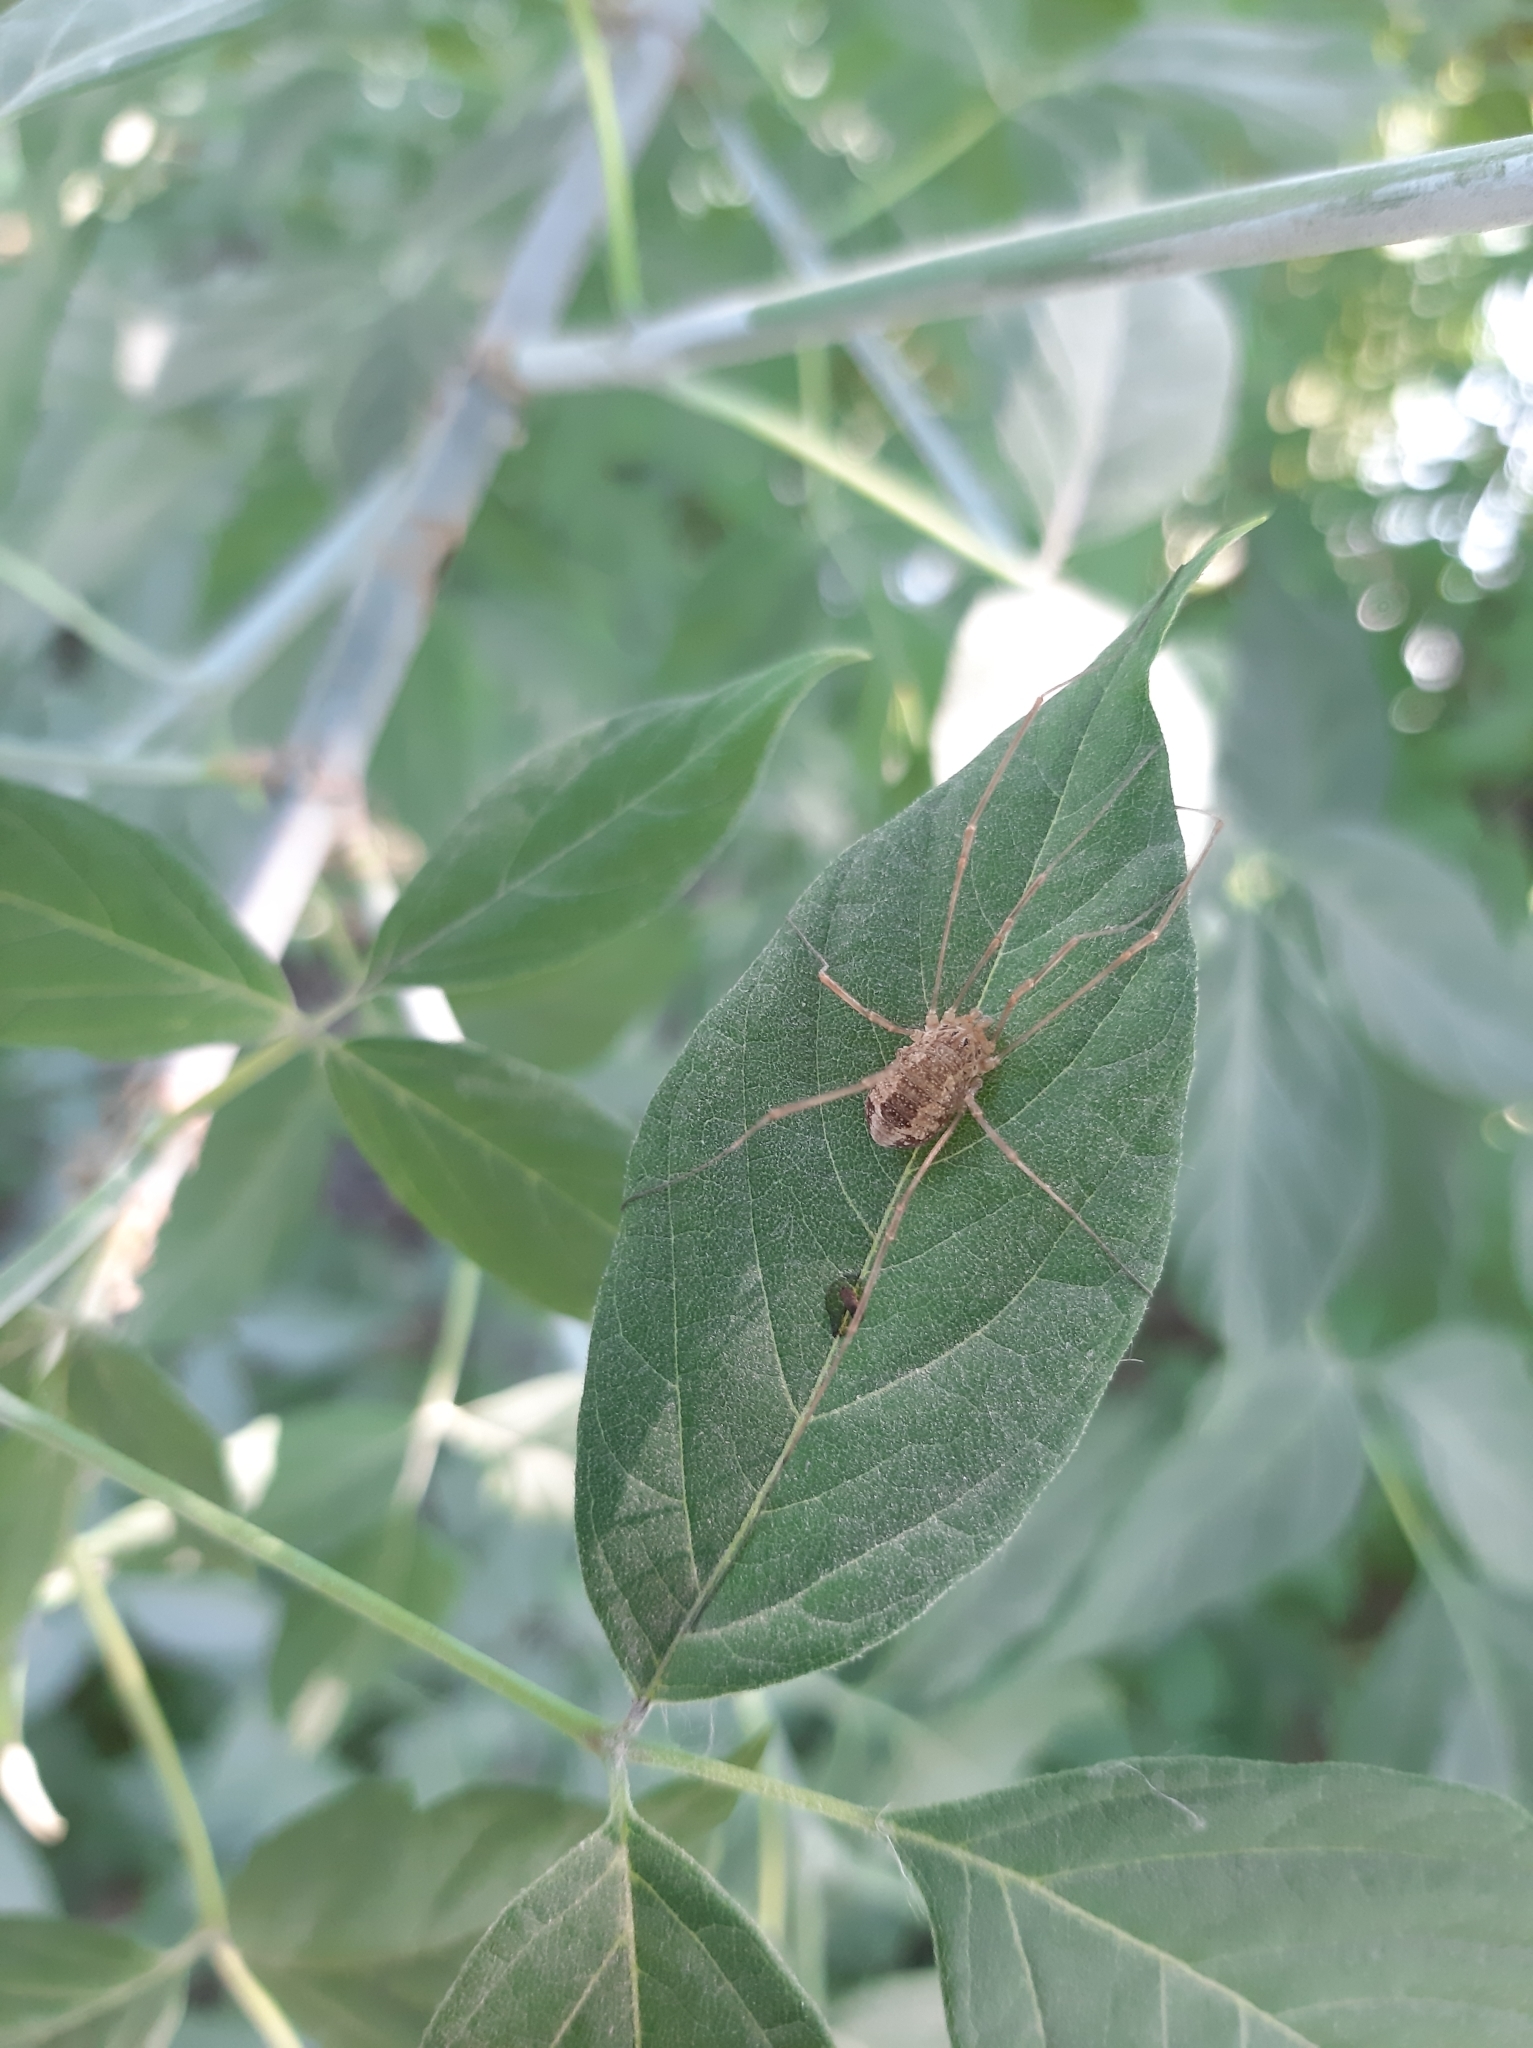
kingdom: Animalia
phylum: Arthropoda
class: Arachnida
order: Opiliones
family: Phalangiidae
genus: Rilaena
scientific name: Rilaena triangularis
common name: Spring harvestman
